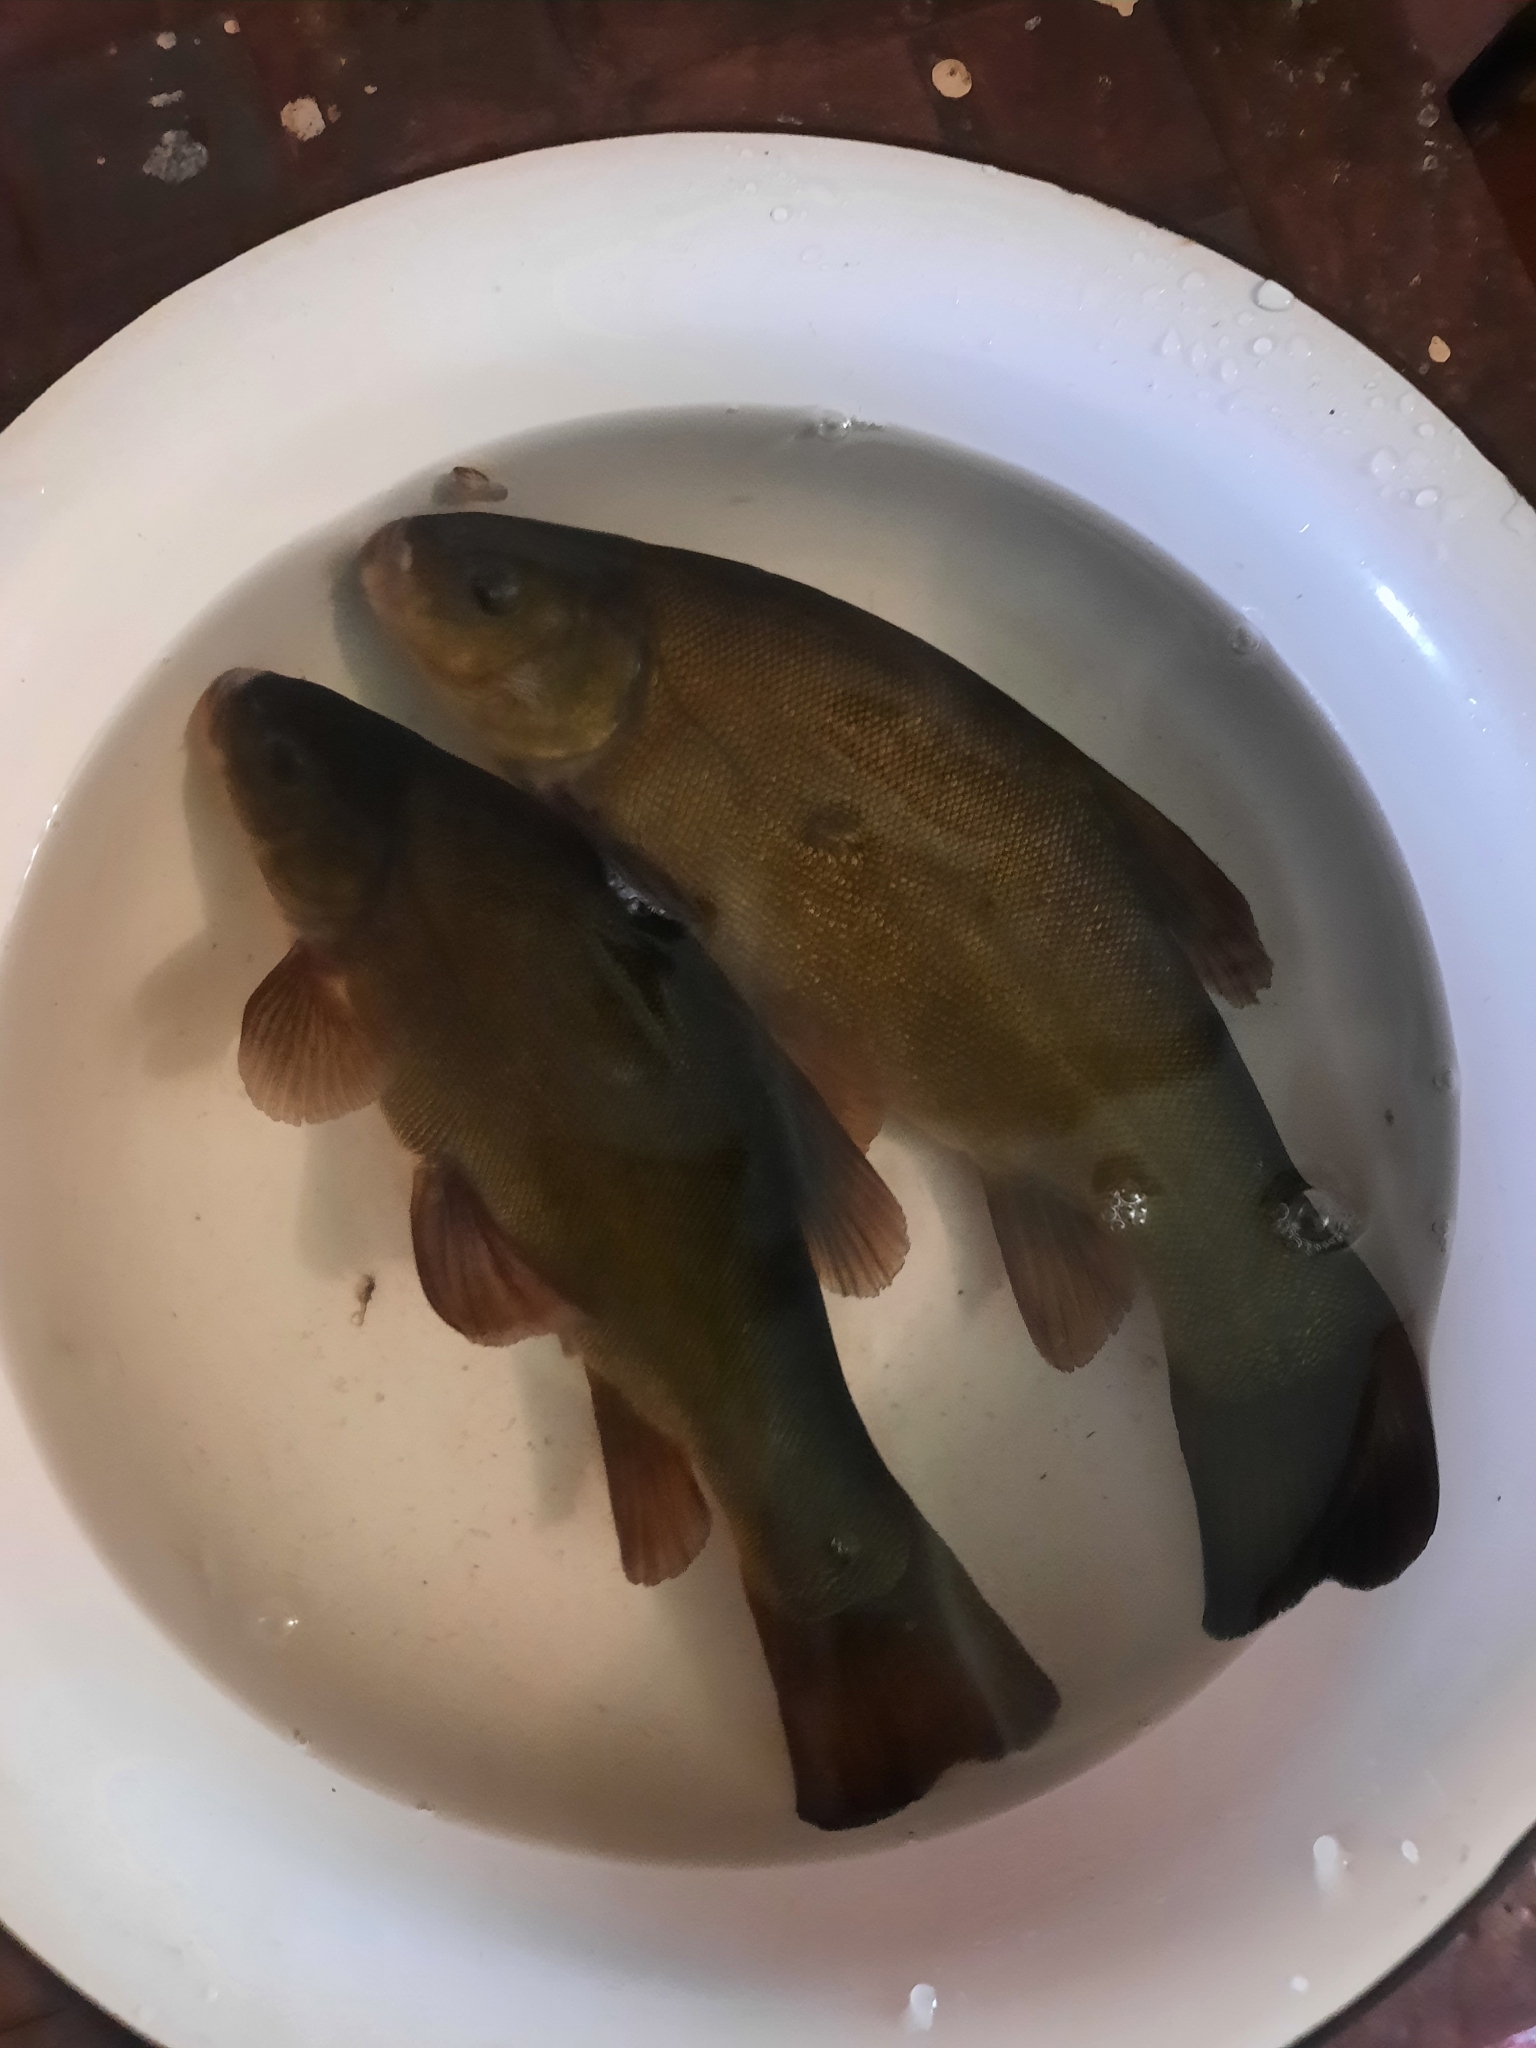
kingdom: Animalia
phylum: Chordata
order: Cypriniformes
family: Cyprinidae
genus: Tinca
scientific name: Tinca tinca
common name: Tench
